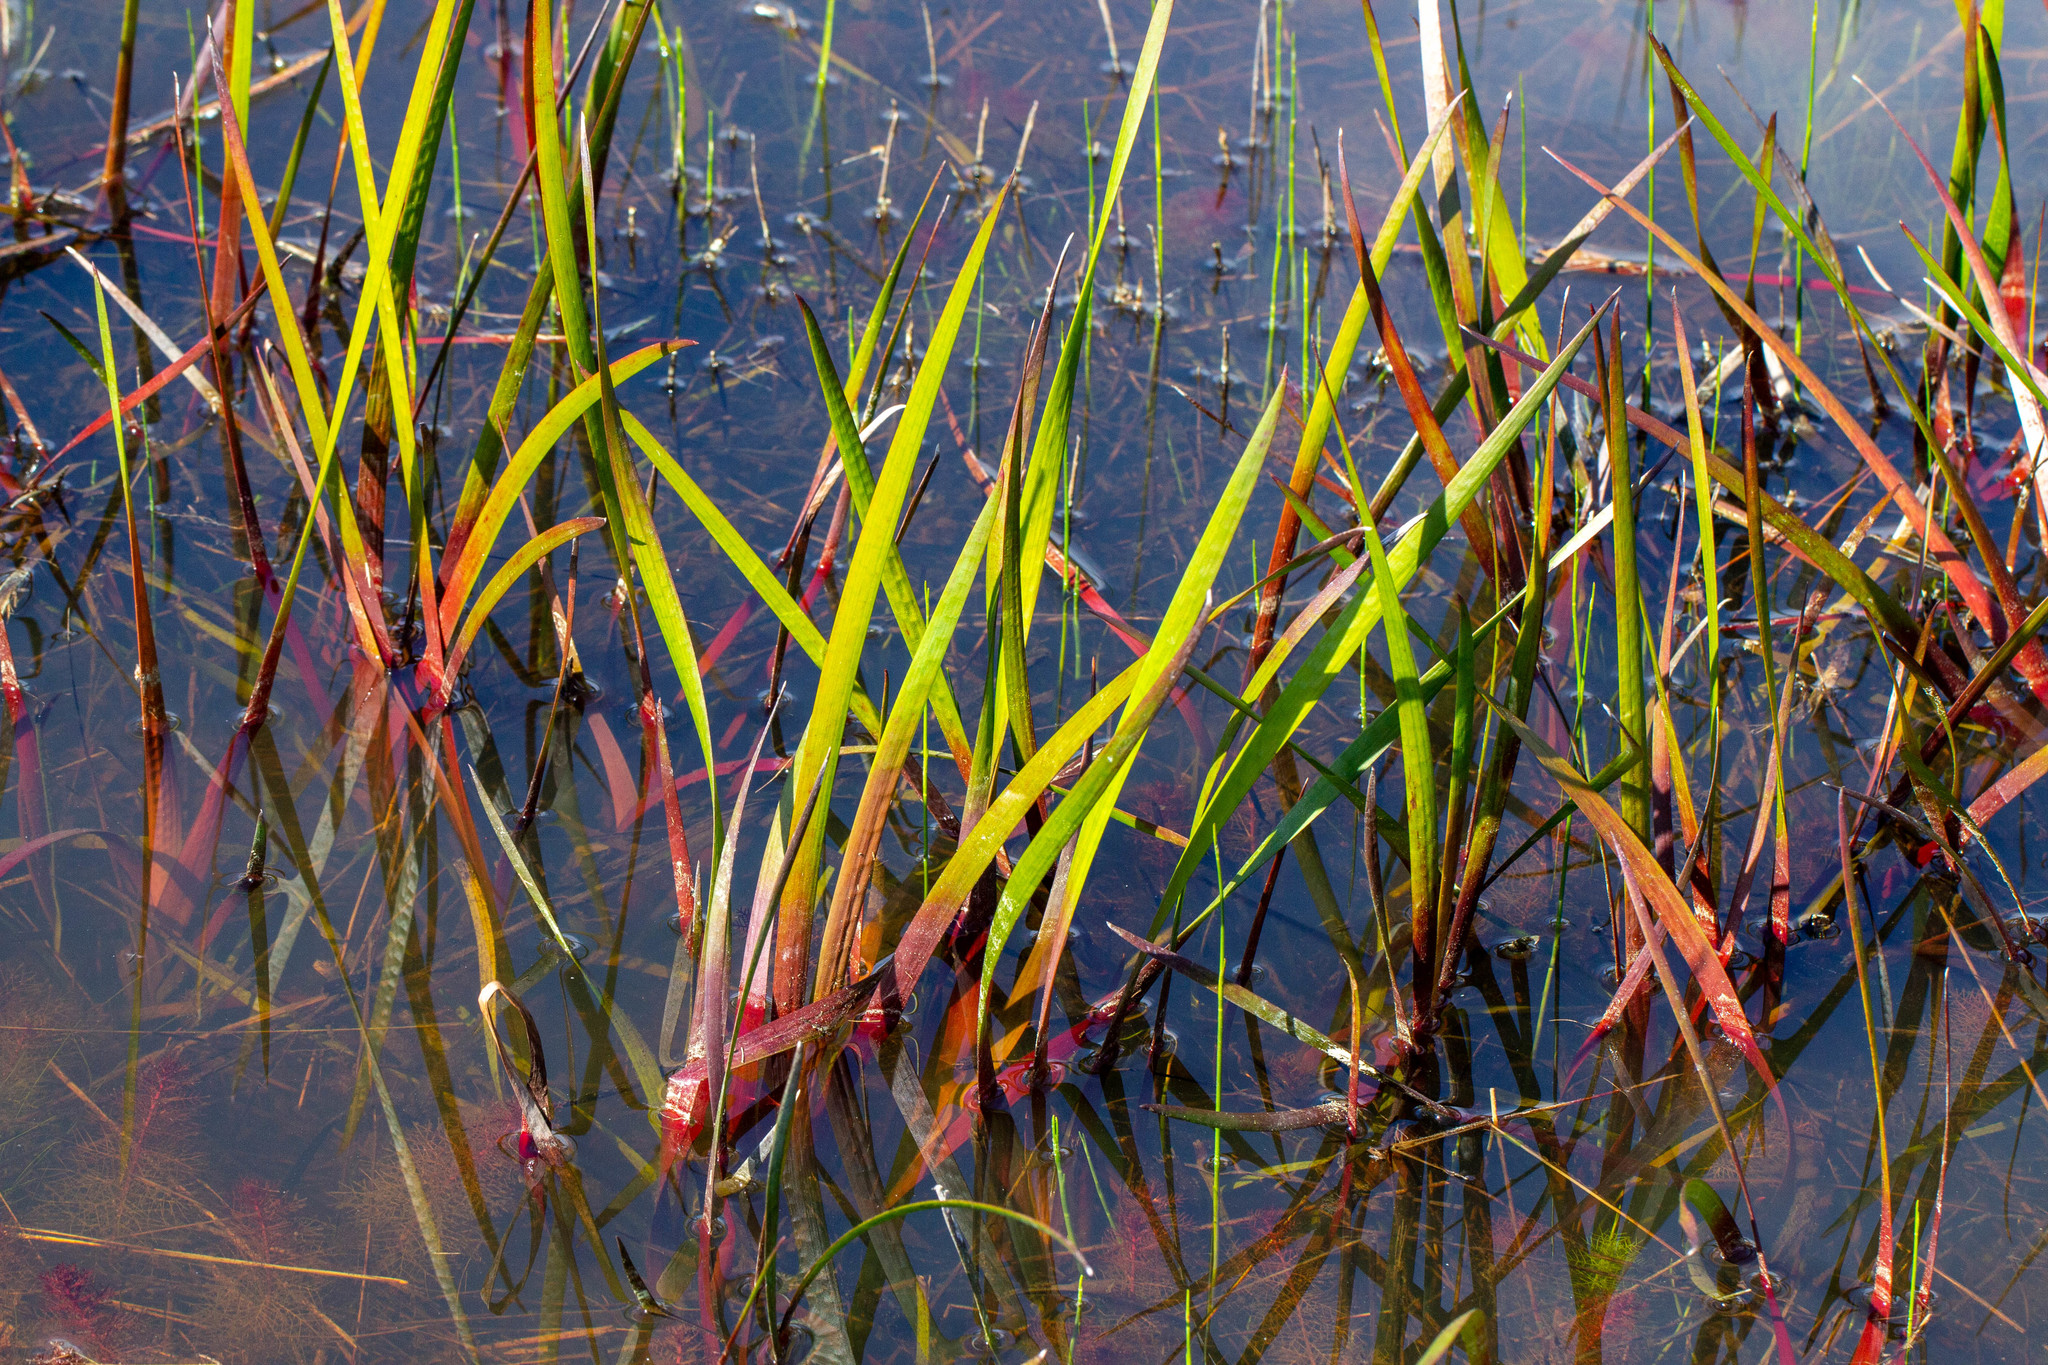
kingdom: Plantae
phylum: Tracheophyta
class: Liliopsida
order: Poales
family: Juncaceae
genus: Juncus
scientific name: Juncus polycephalus
